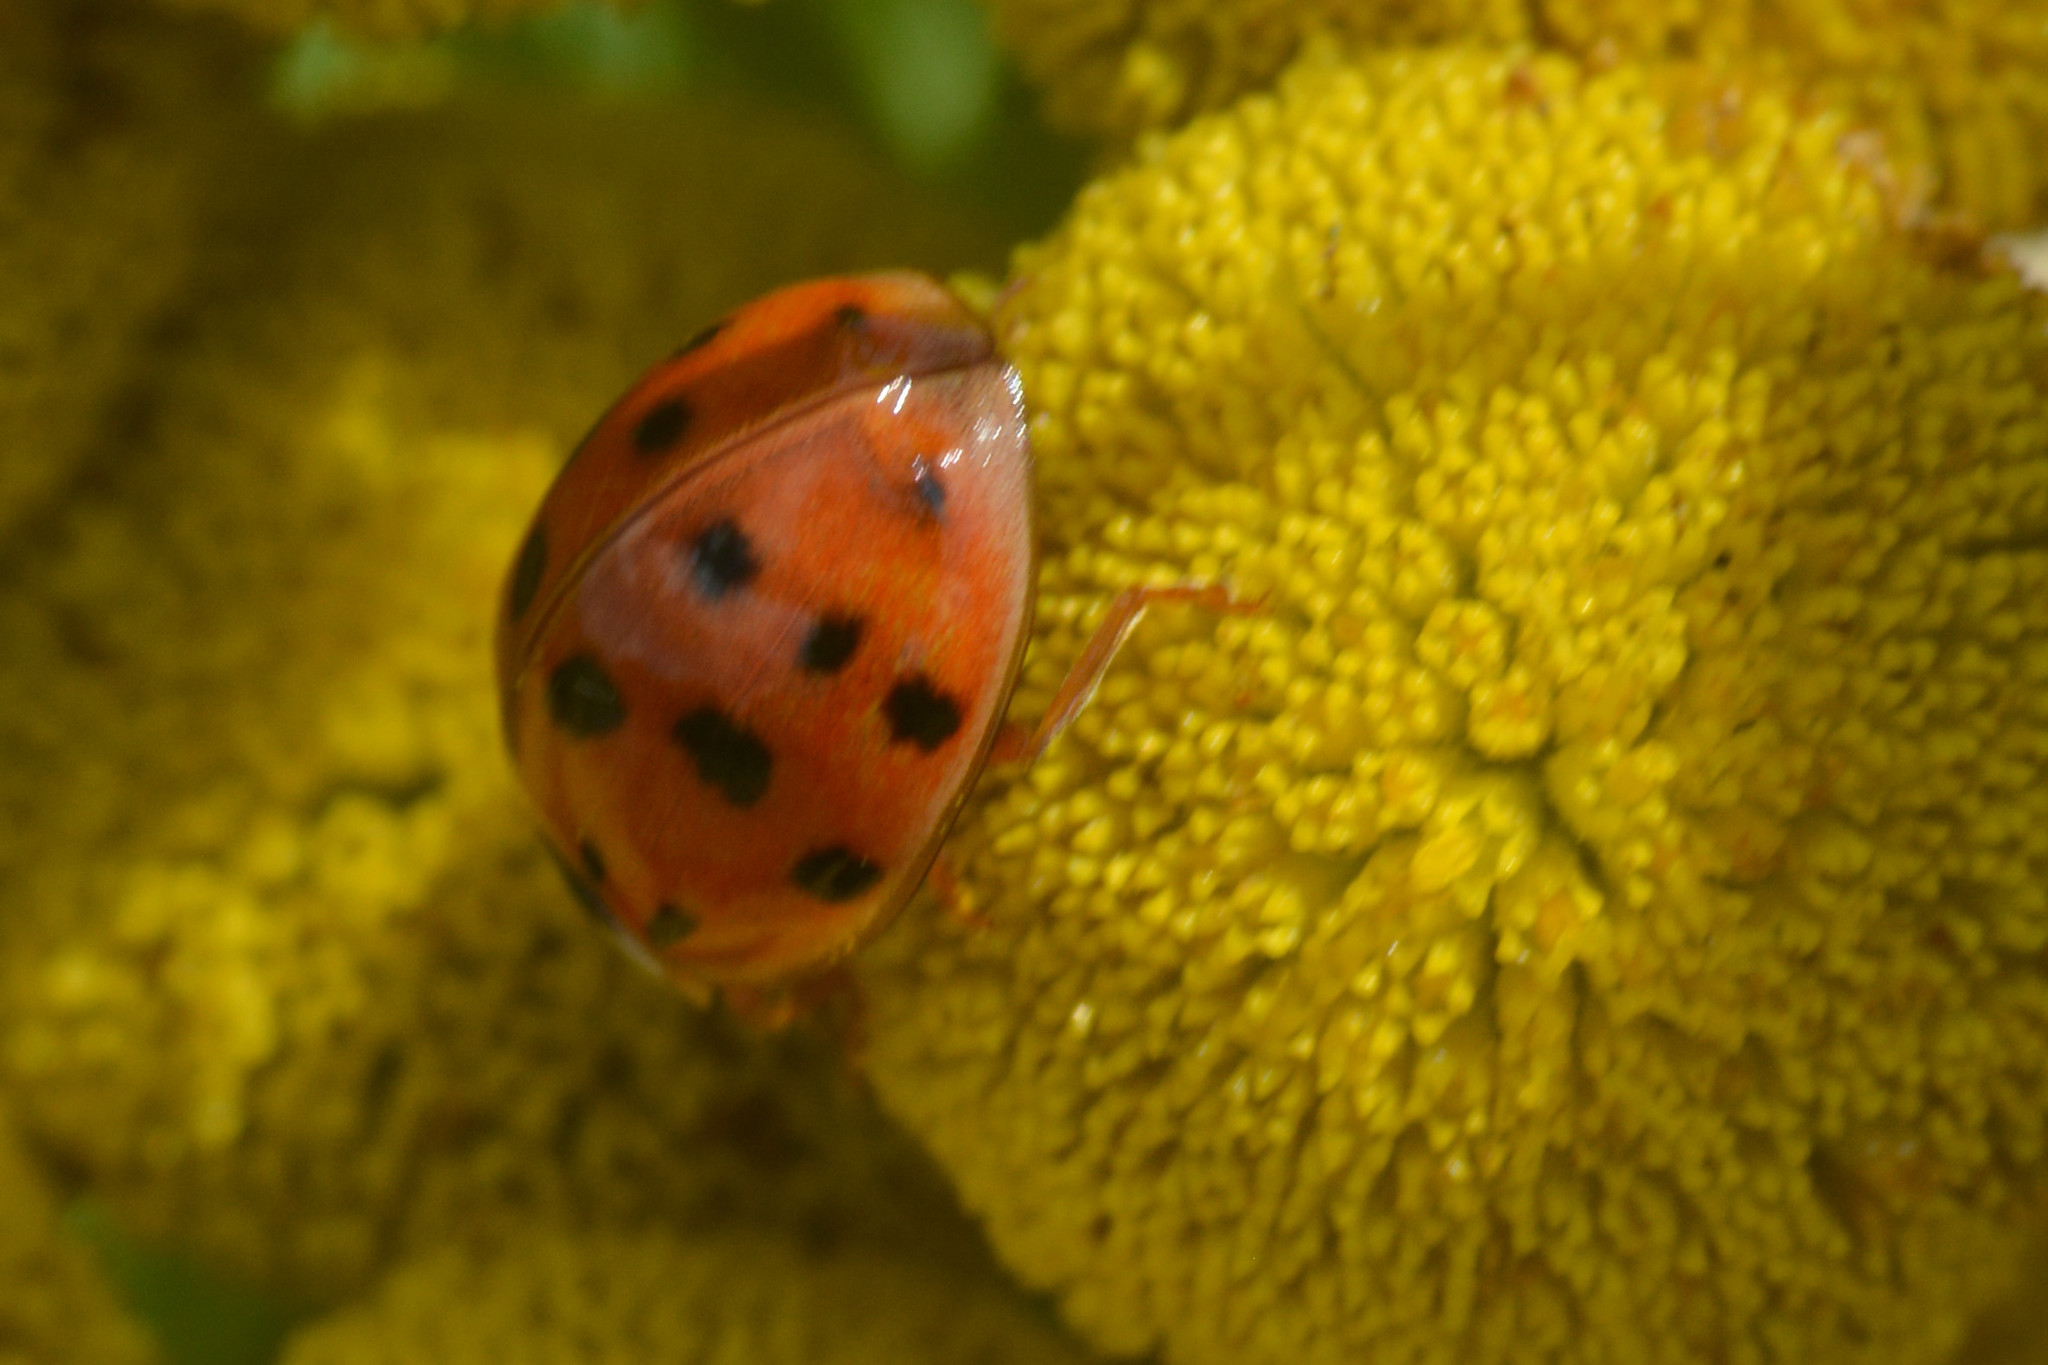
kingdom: Animalia
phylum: Arthropoda
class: Insecta
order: Coleoptera
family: Coccinellidae
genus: Harmonia
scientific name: Harmonia axyridis
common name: Harlequin ladybird
